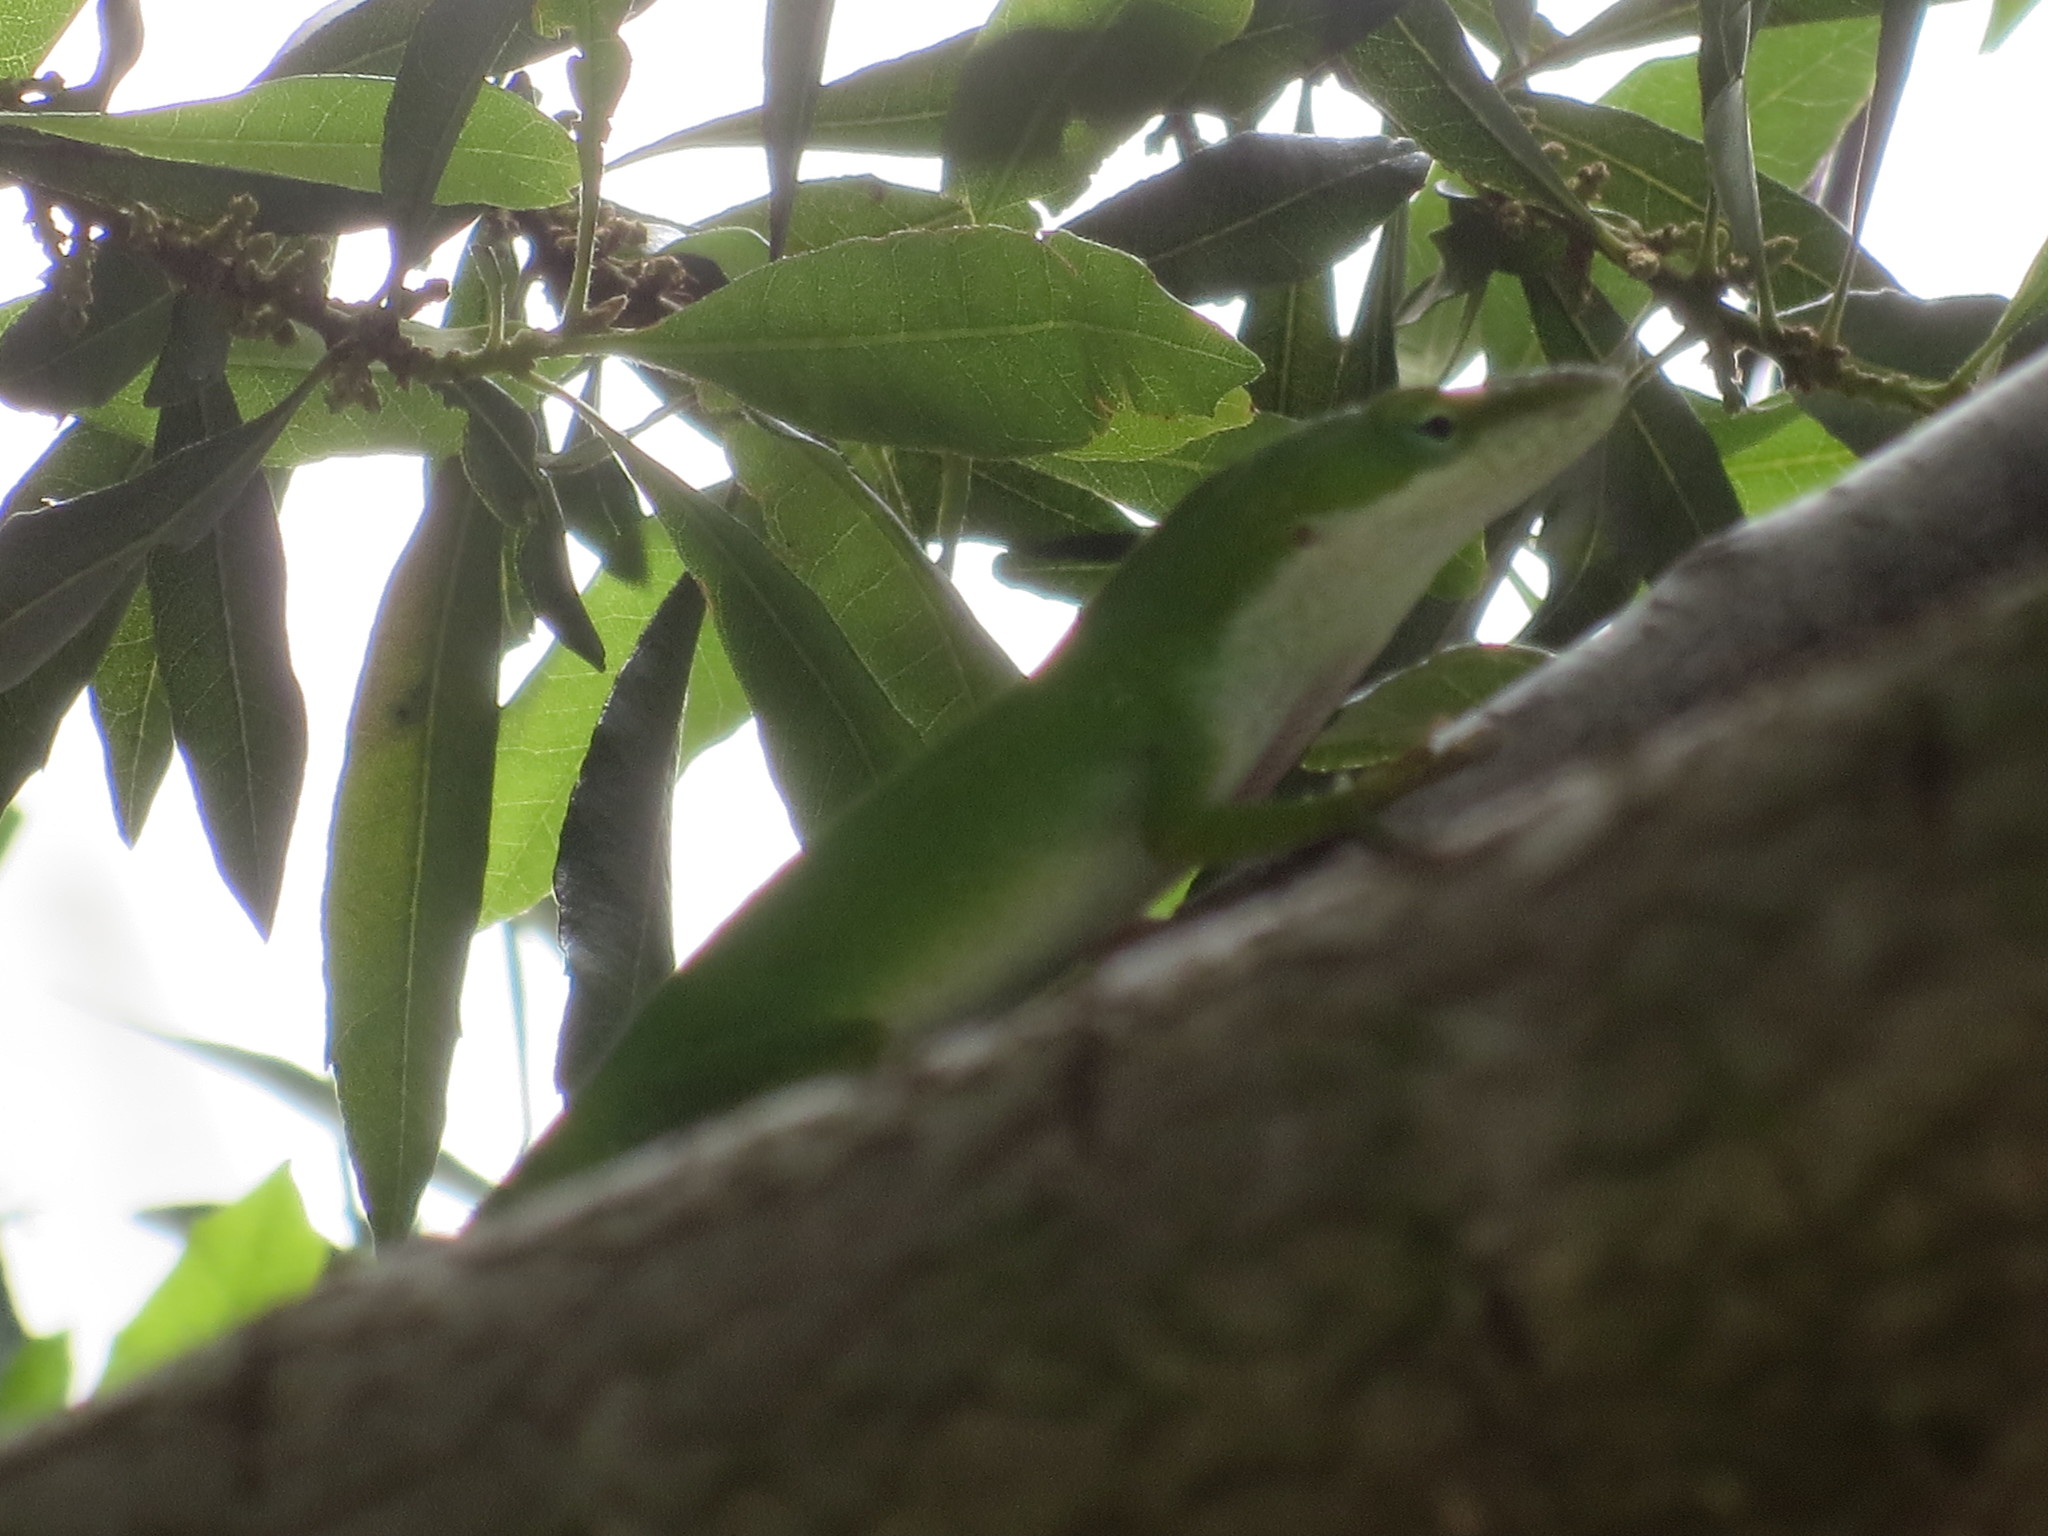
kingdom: Animalia
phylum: Chordata
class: Squamata
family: Dactyloidae
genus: Anolis
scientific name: Anolis carolinensis
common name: Green anole
